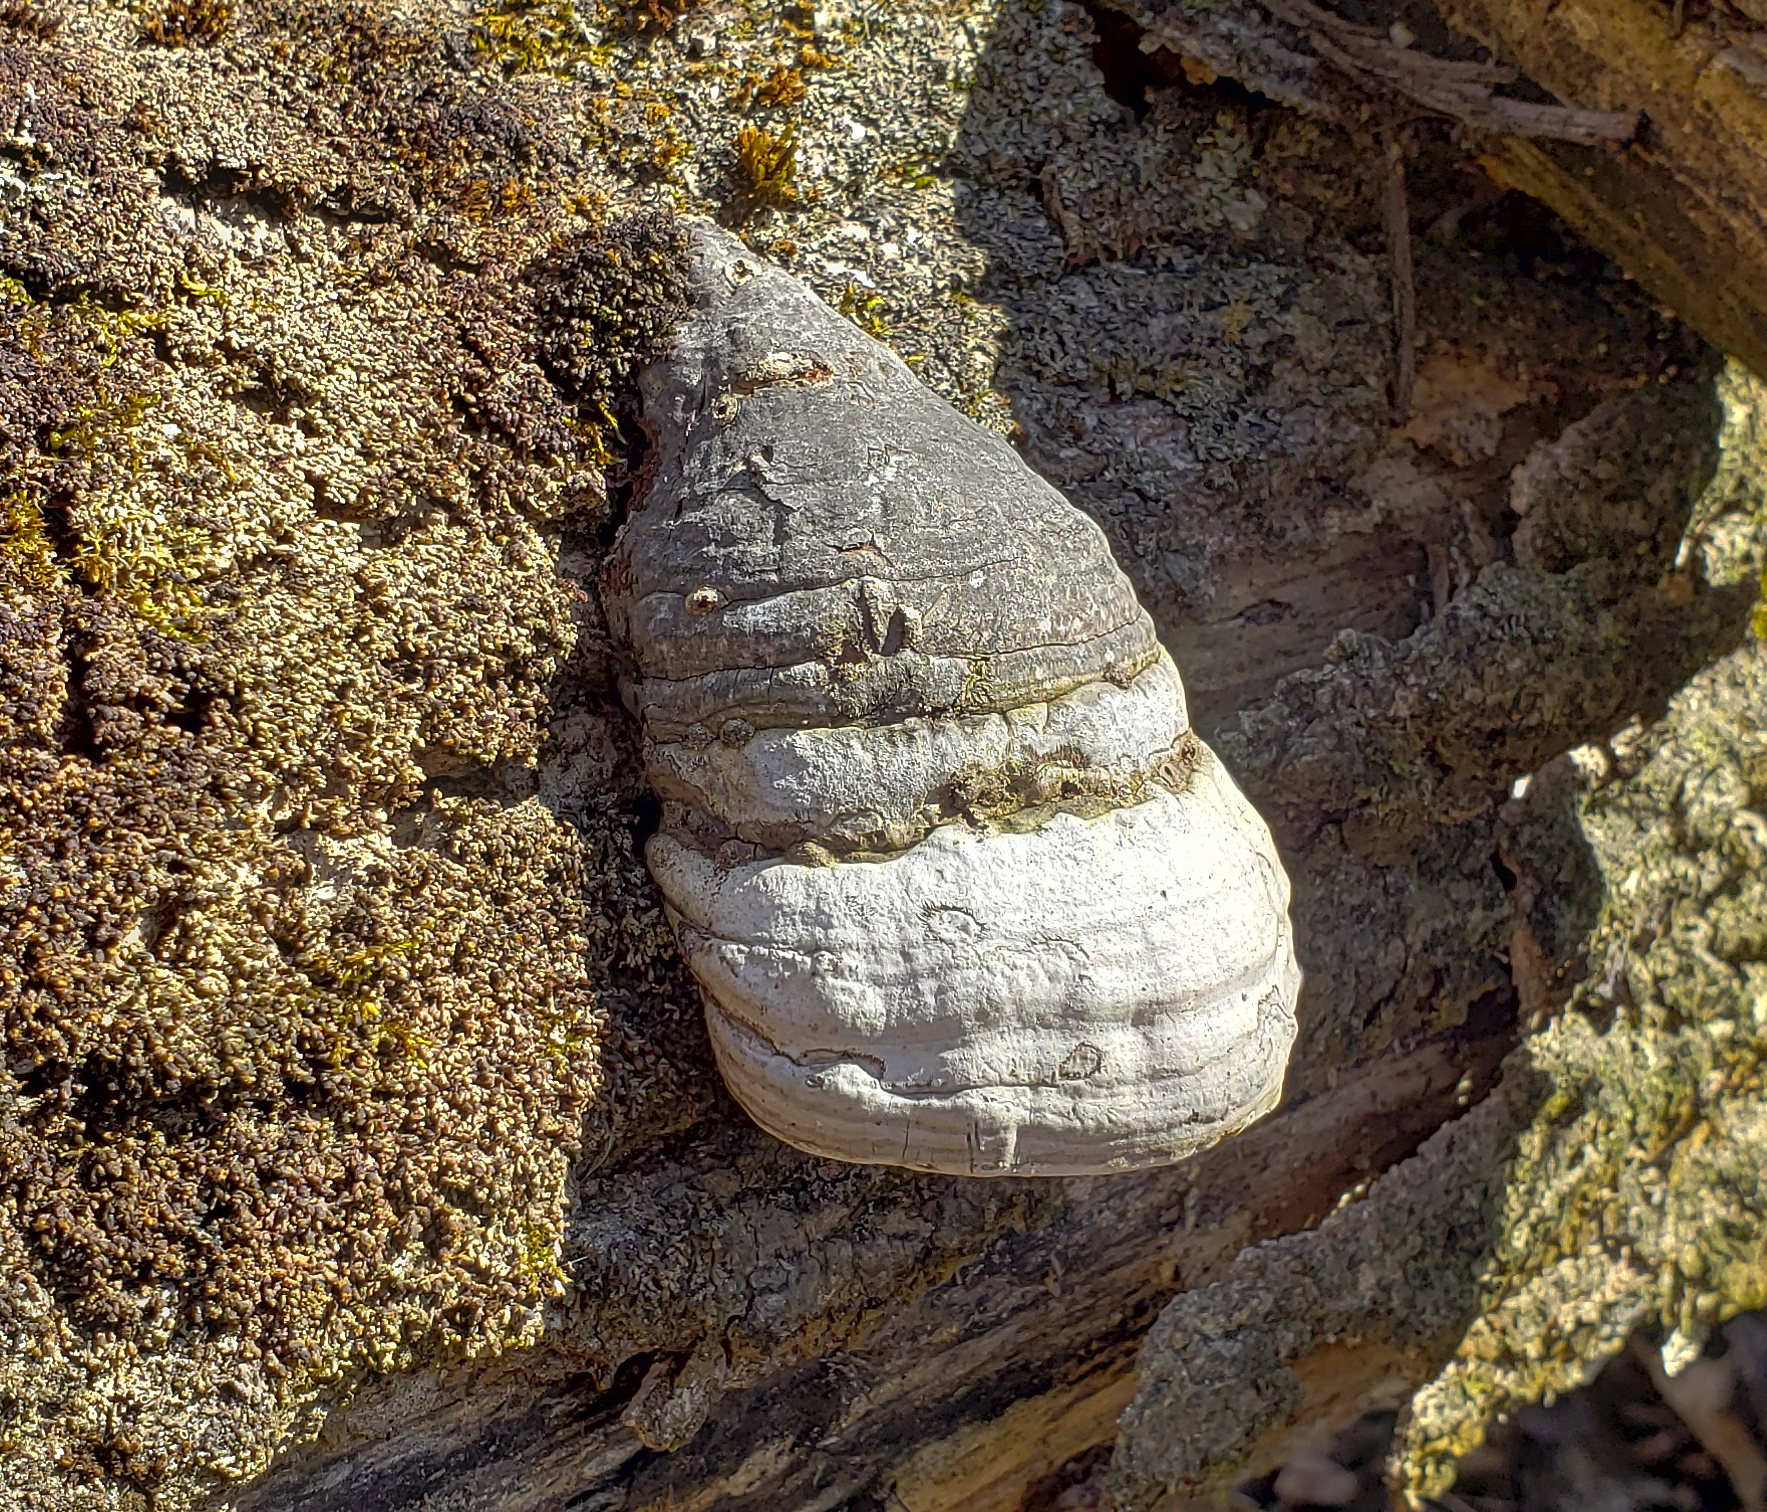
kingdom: Fungi
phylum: Basidiomycota
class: Agaricomycetes
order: Polyporales
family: Polyporaceae
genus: Fomes
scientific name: Fomes fomentarius
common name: Hoof fungus
